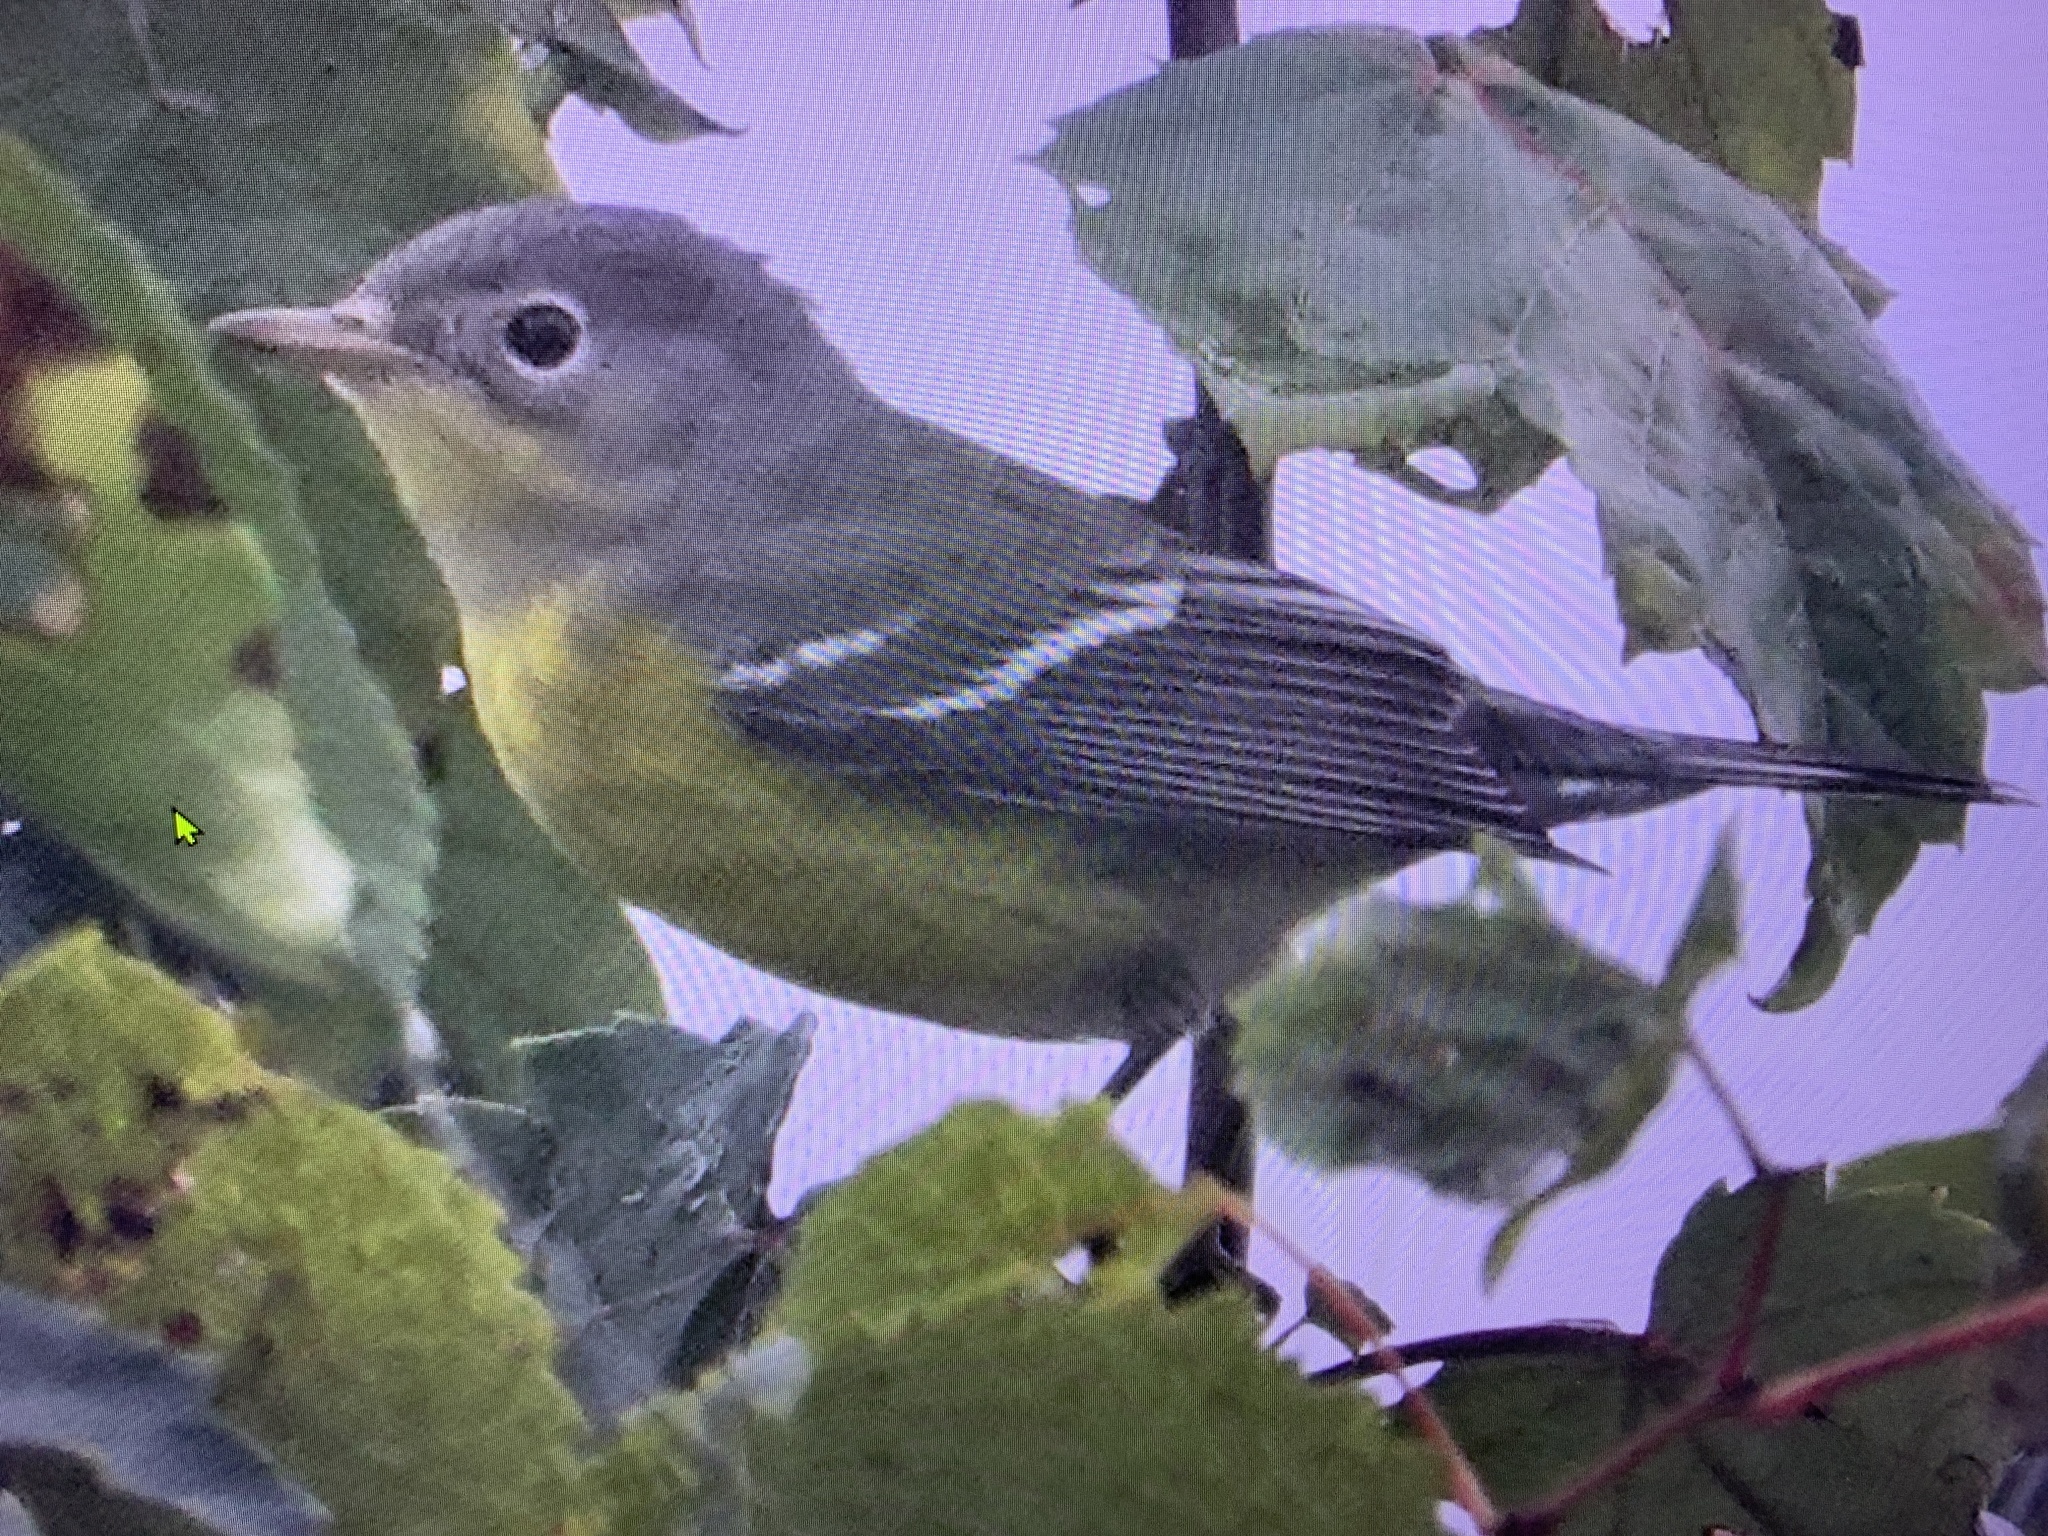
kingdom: Animalia
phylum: Chordata
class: Aves
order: Passeriformes
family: Parulidae
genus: Setophaga
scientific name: Setophaga magnolia
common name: Magnolia warbler
